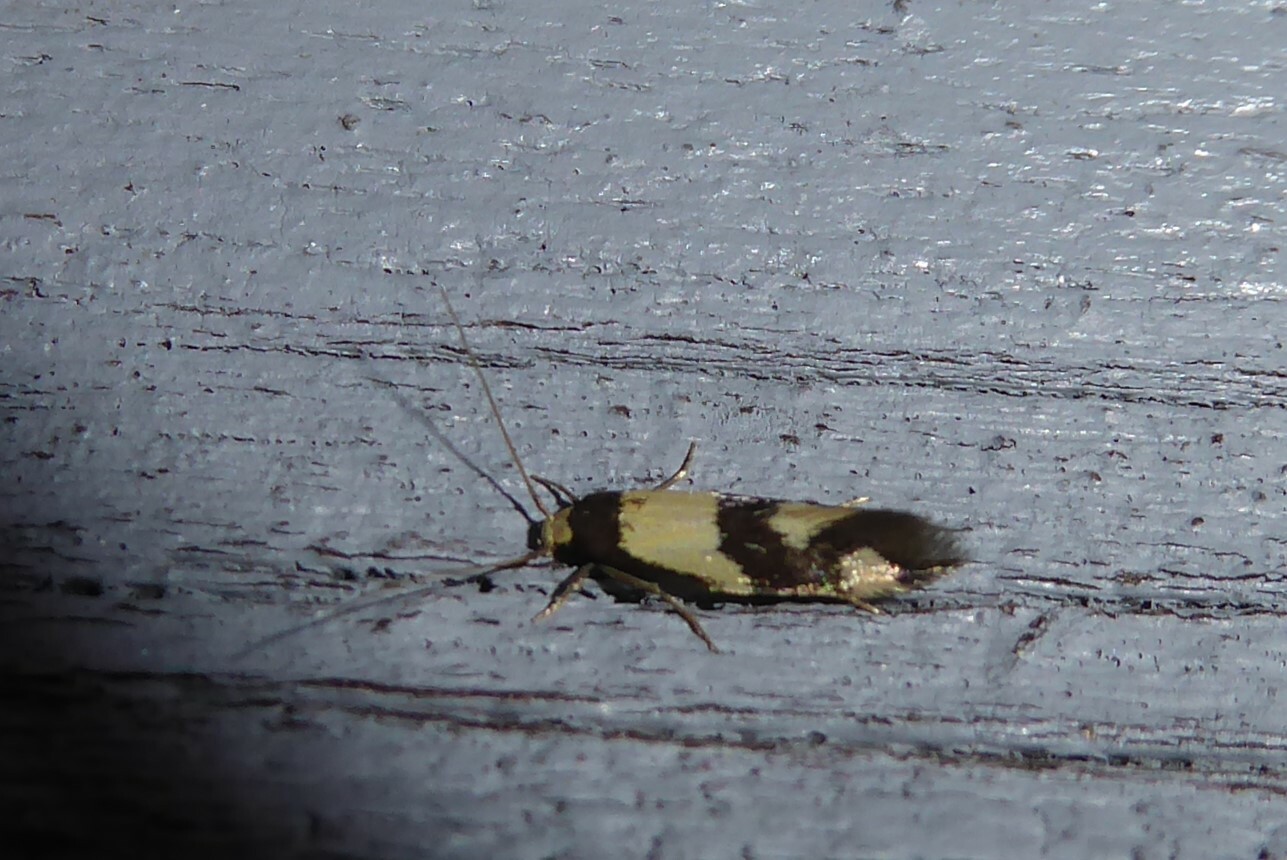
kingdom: Animalia
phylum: Arthropoda
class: Insecta
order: Lepidoptera
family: Tineidae
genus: Opogona
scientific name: Opogona comptella
